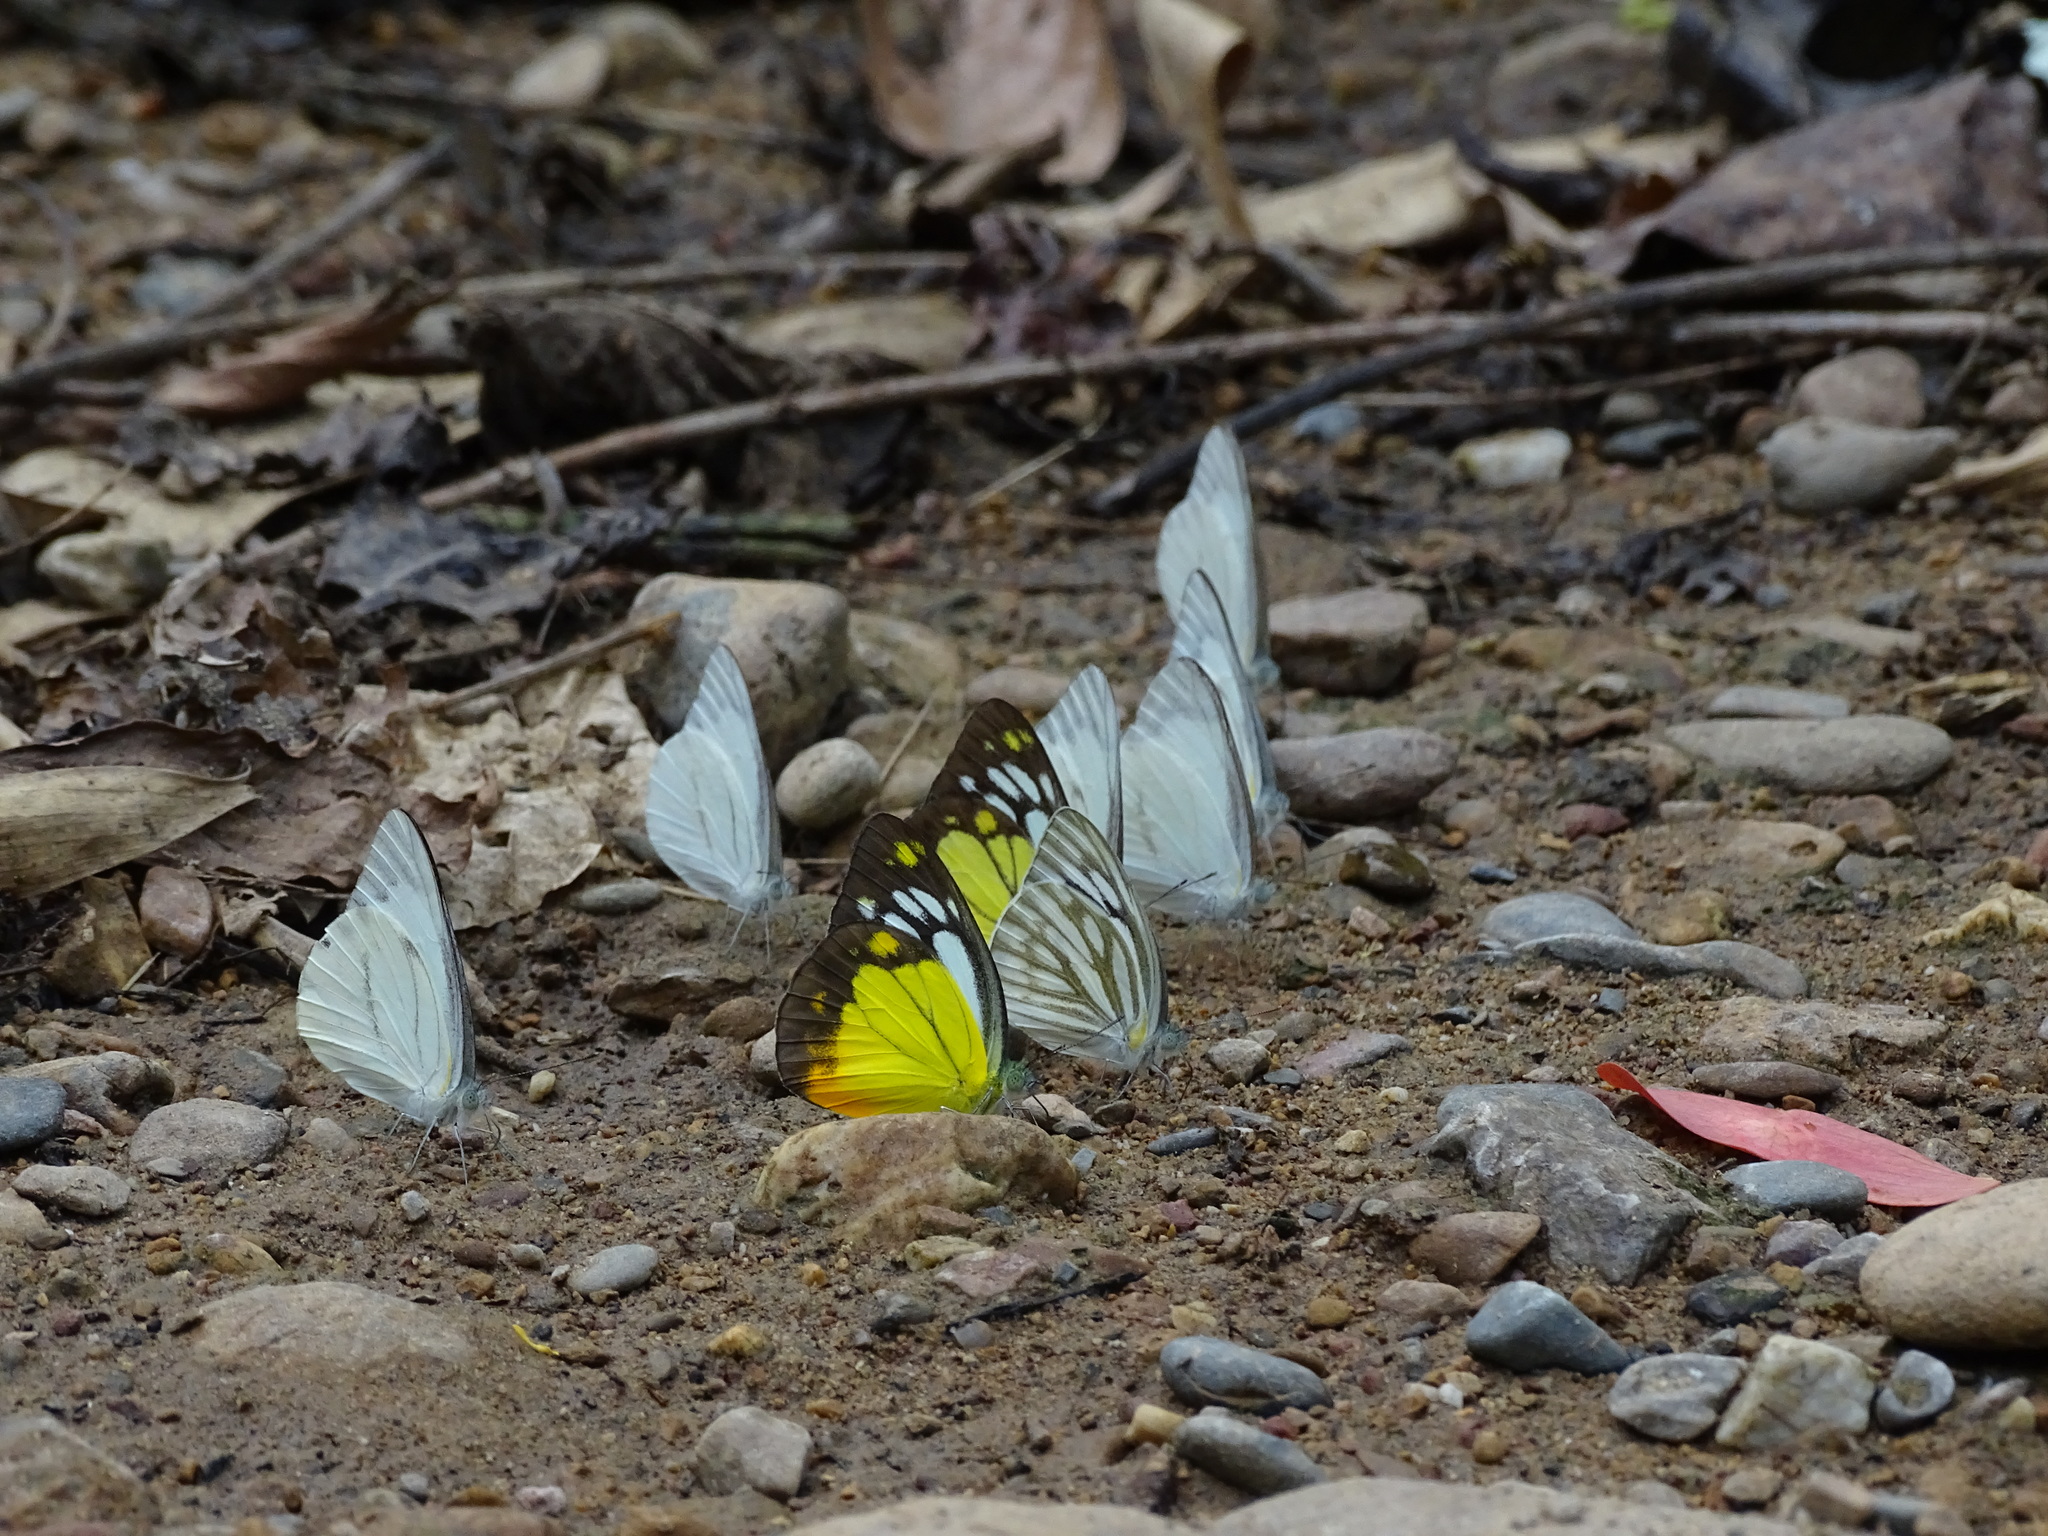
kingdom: Animalia
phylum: Arthropoda
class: Insecta
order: Lepidoptera
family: Pieridae
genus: Cepora
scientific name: Cepora nerissa
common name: Common gull
